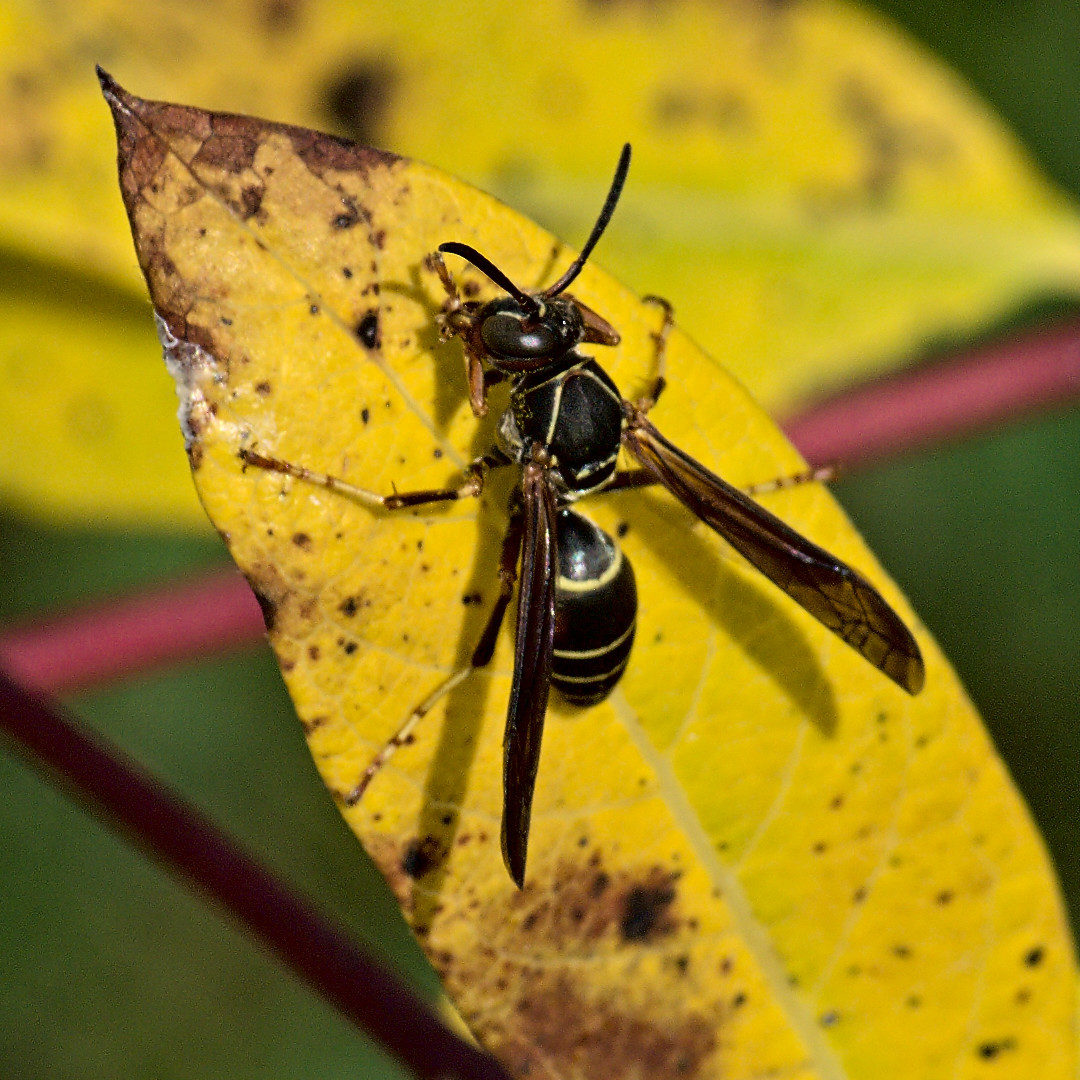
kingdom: Animalia
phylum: Arthropoda
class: Insecta
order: Hymenoptera
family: Eumenidae
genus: Polistes
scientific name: Polistes fuscatus
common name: Dark paper wasp
